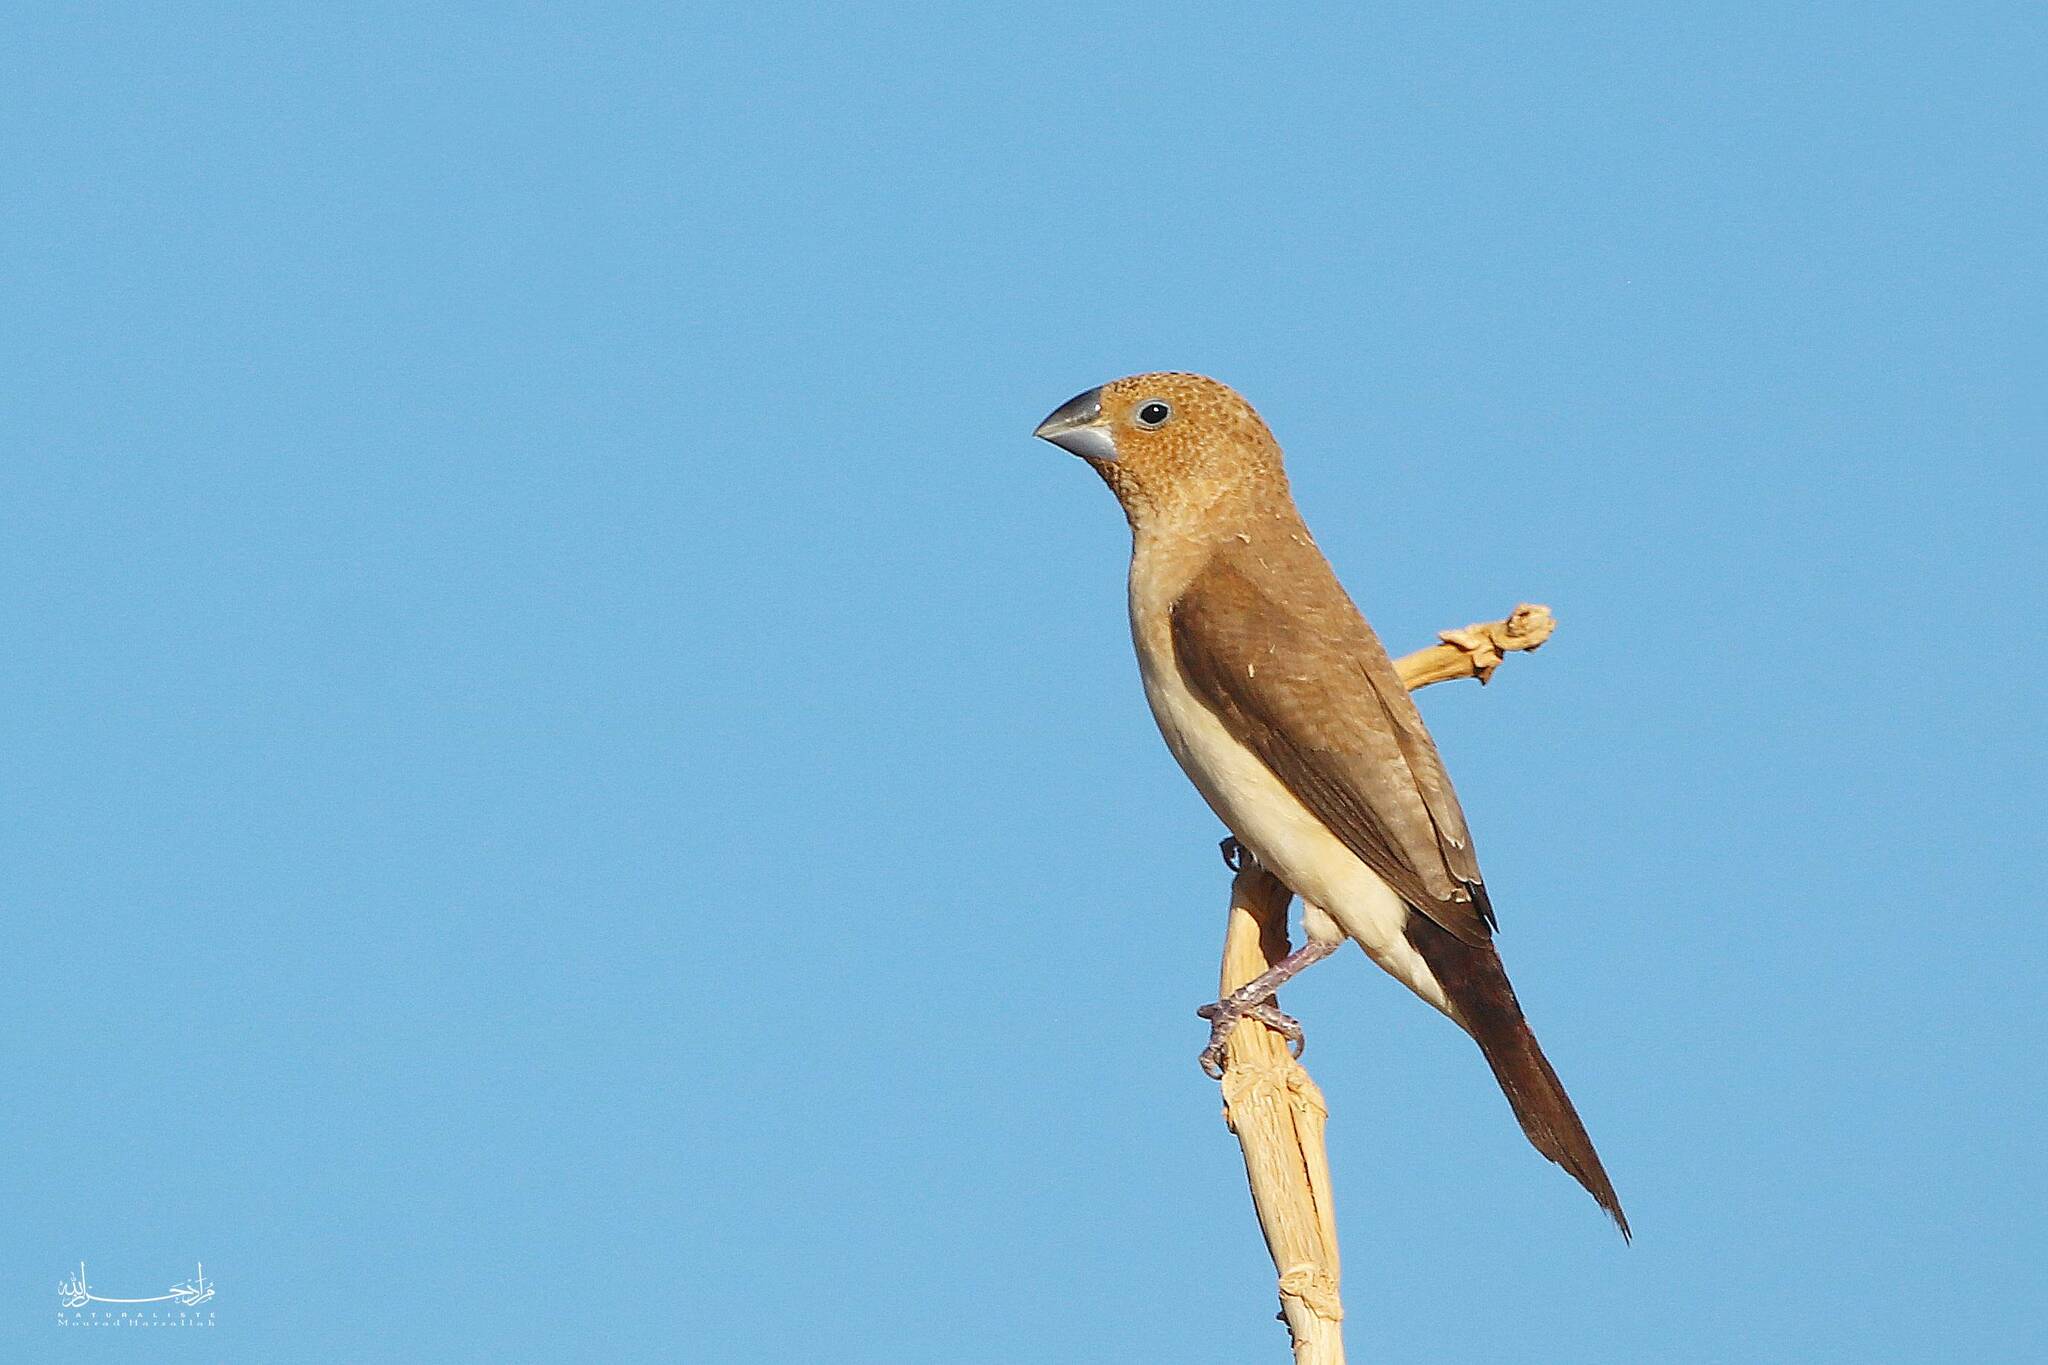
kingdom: Animalia
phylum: Chordata
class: Aves
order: Passeriformes
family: Estrildidae
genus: Euodice
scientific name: Euodice cantans
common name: African silverbill
